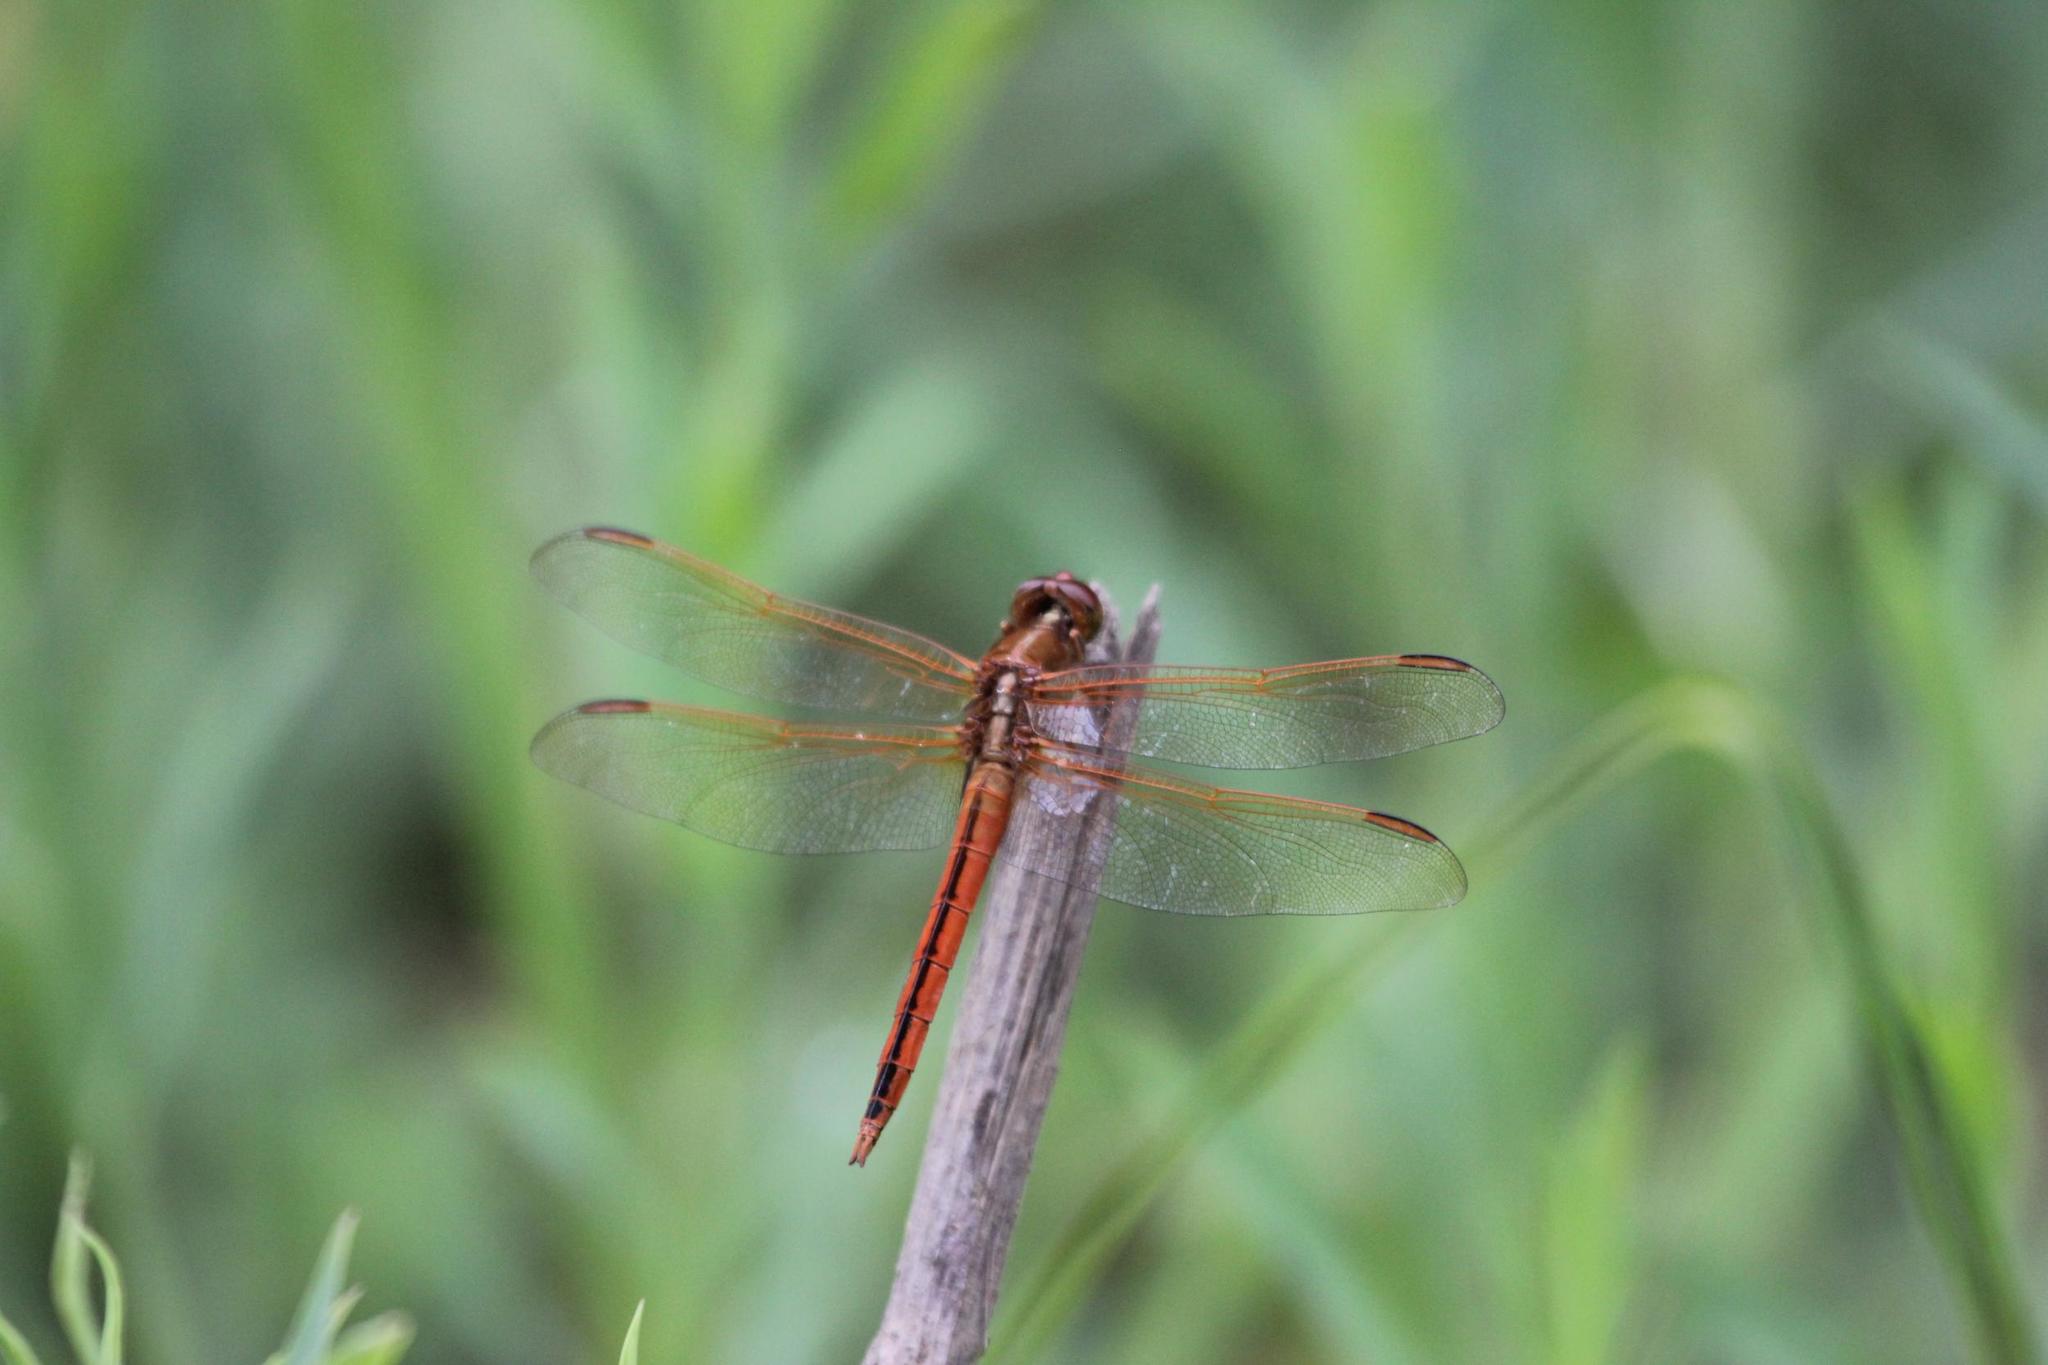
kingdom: Animalia
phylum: Arthropoda
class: Insecta
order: Odonata
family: Libellulidae
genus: Libellula
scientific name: Libellula needhami
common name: Needham's skimmer
